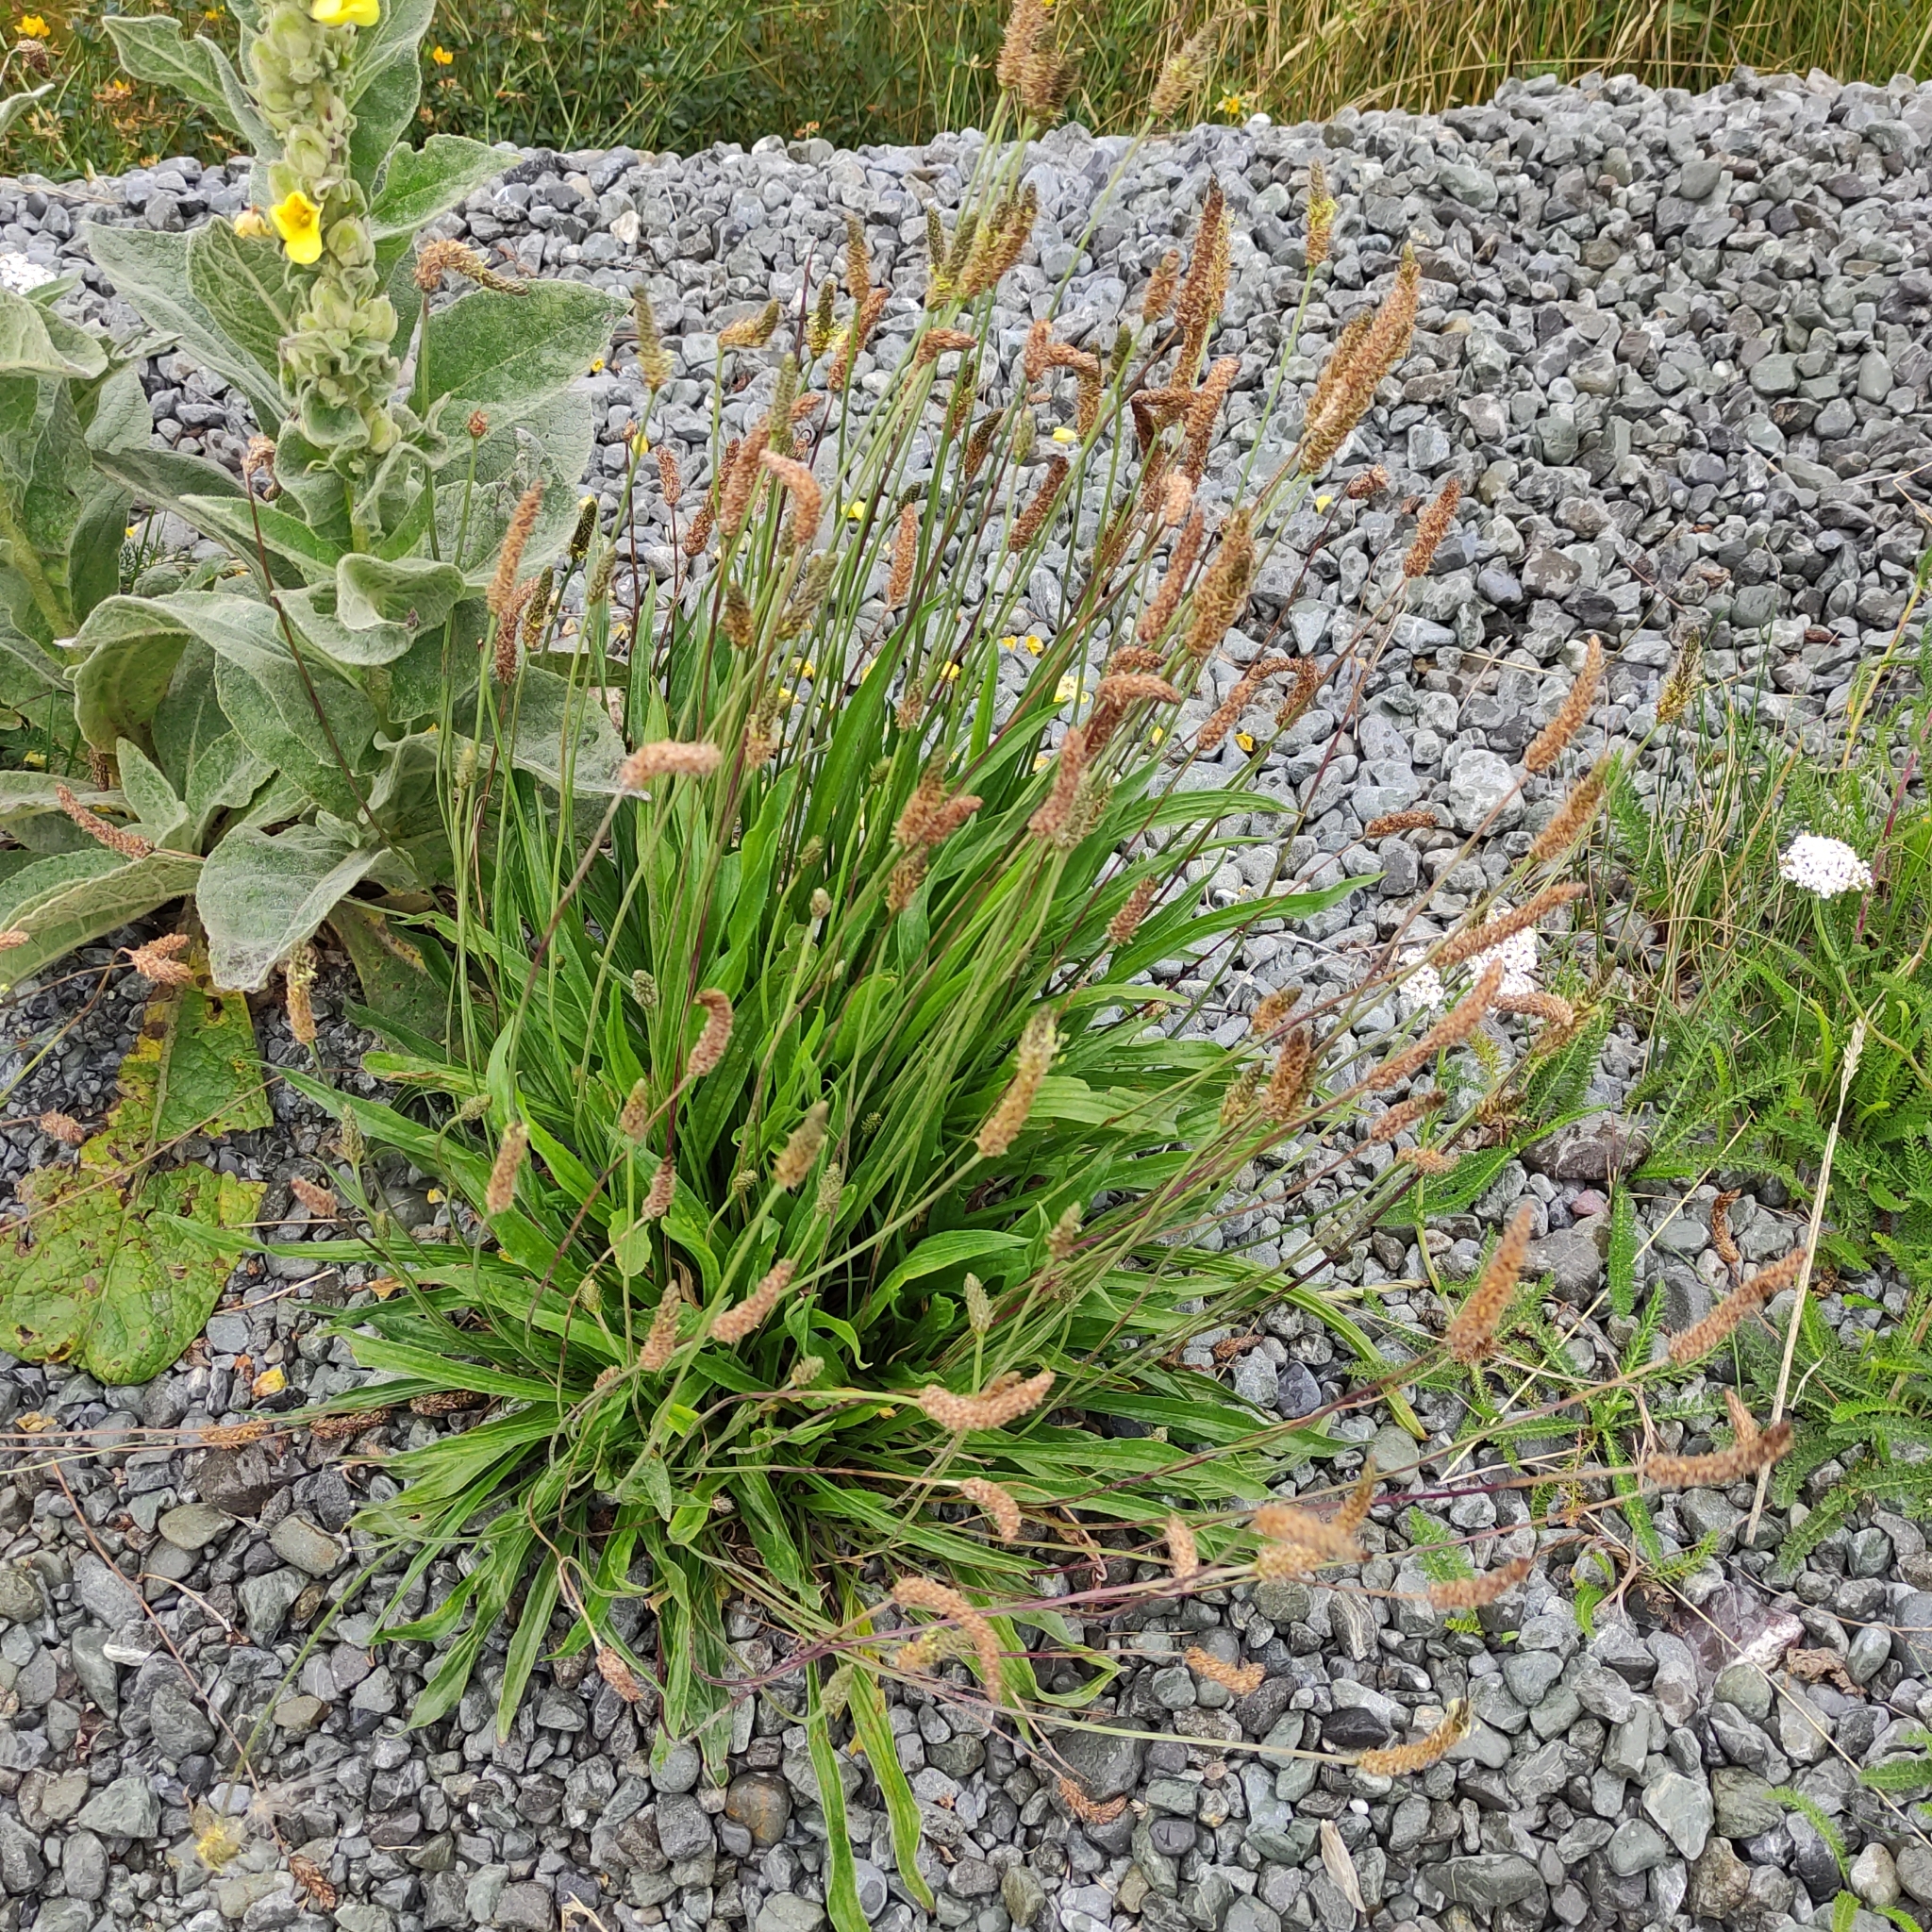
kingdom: Plantae
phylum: Tracheophyta
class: Magnoliopsida
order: Lamiales
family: Plantaginaceae
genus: Plantago
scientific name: Plantago lanceolata
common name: Ribwort plantain
